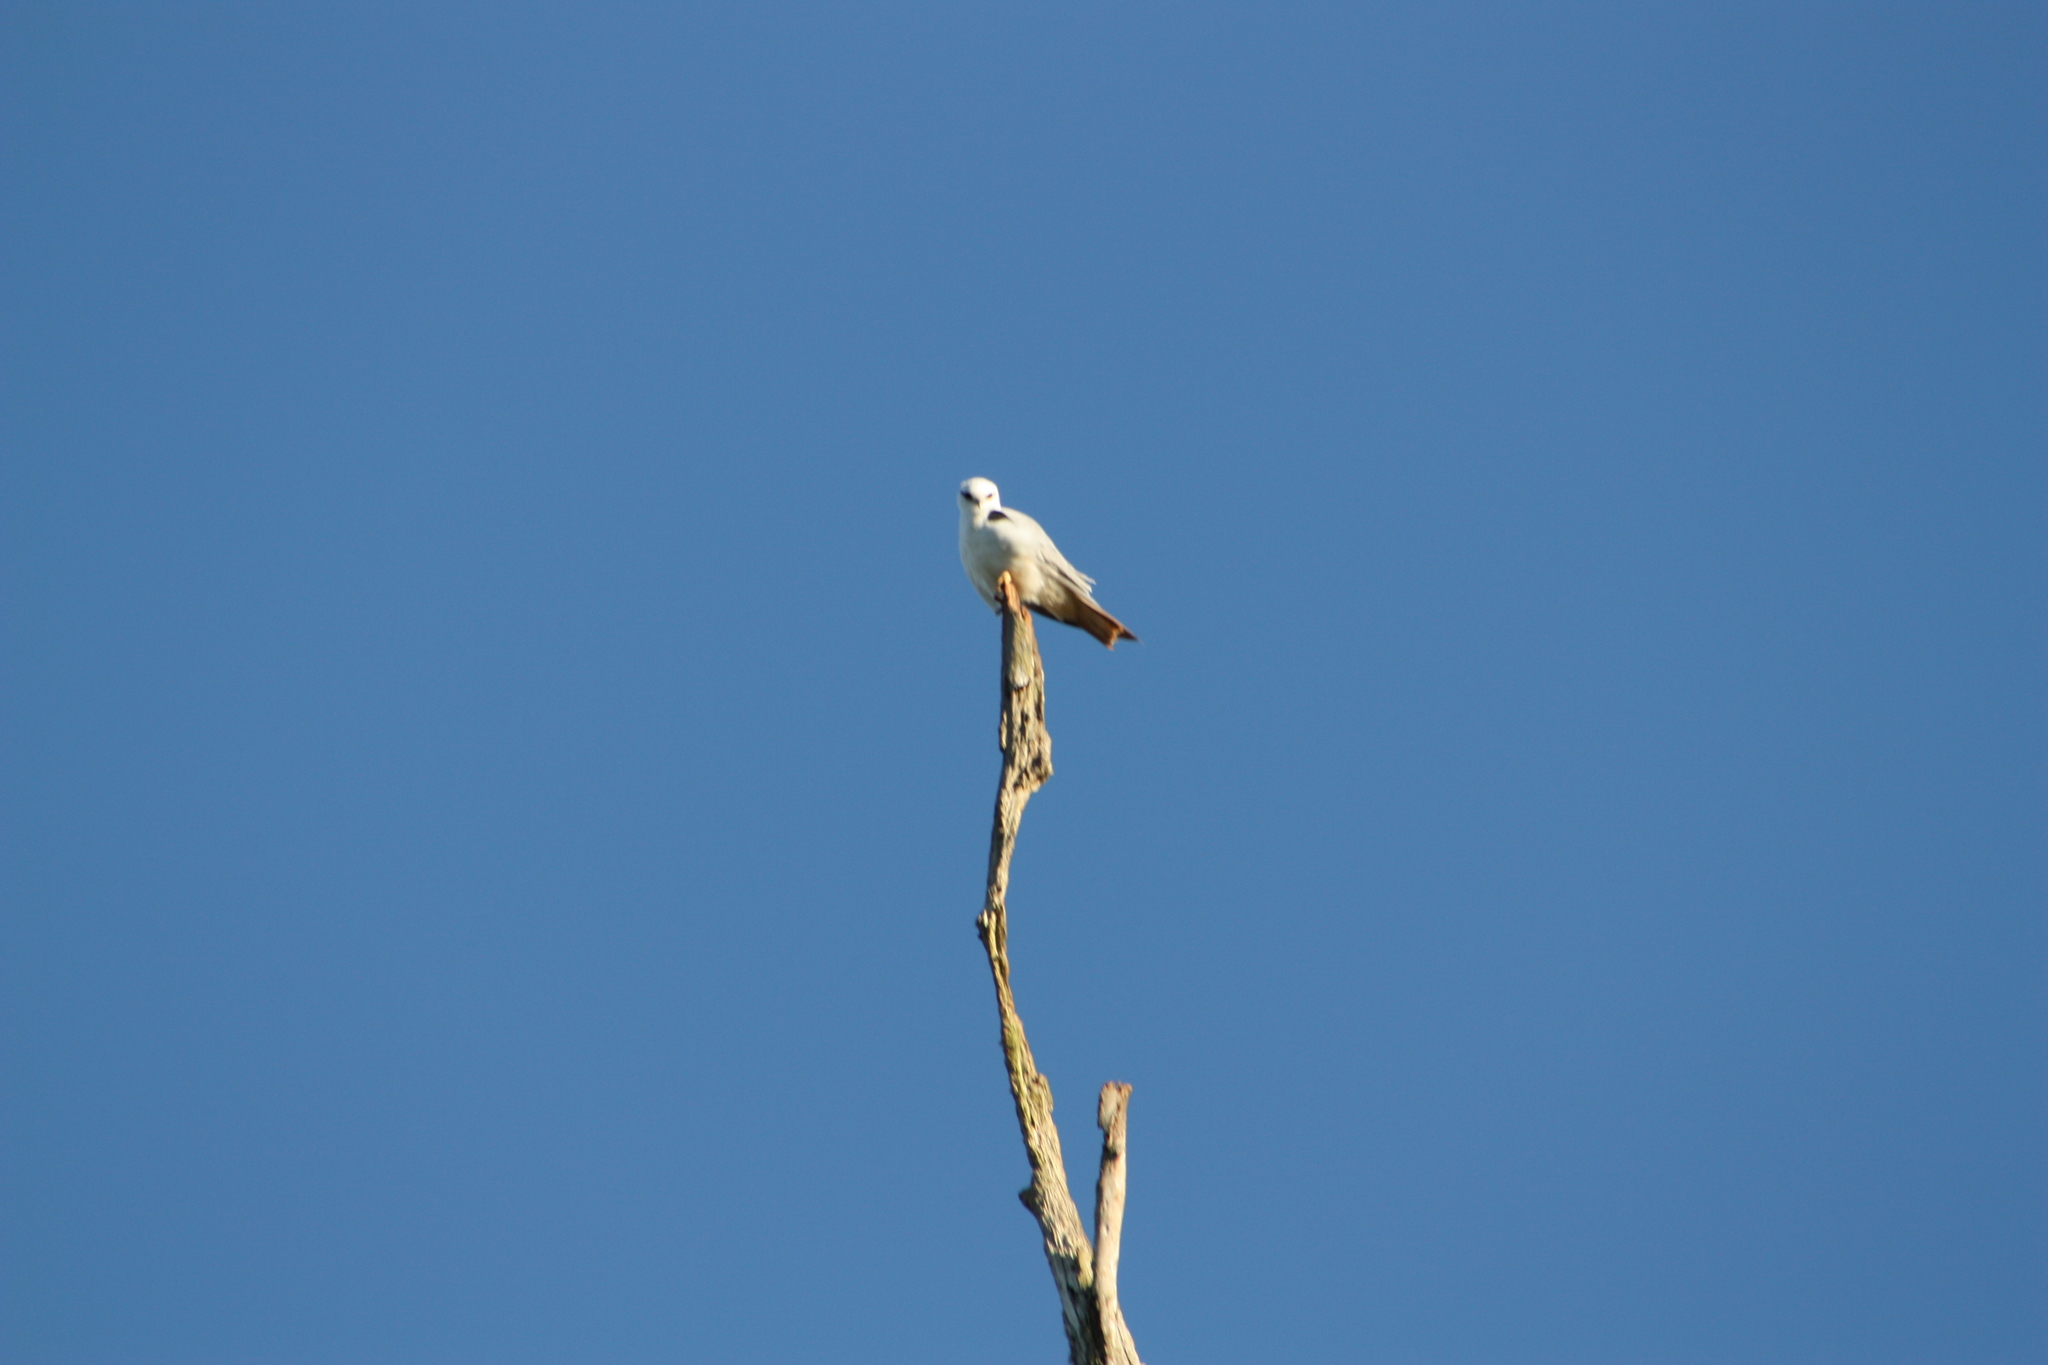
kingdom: Animalia
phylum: Chordata
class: Aves
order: Accipitriformes
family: Accipitridae
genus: Elanus
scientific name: Elanus axillaris
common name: Black-shouldered kite
